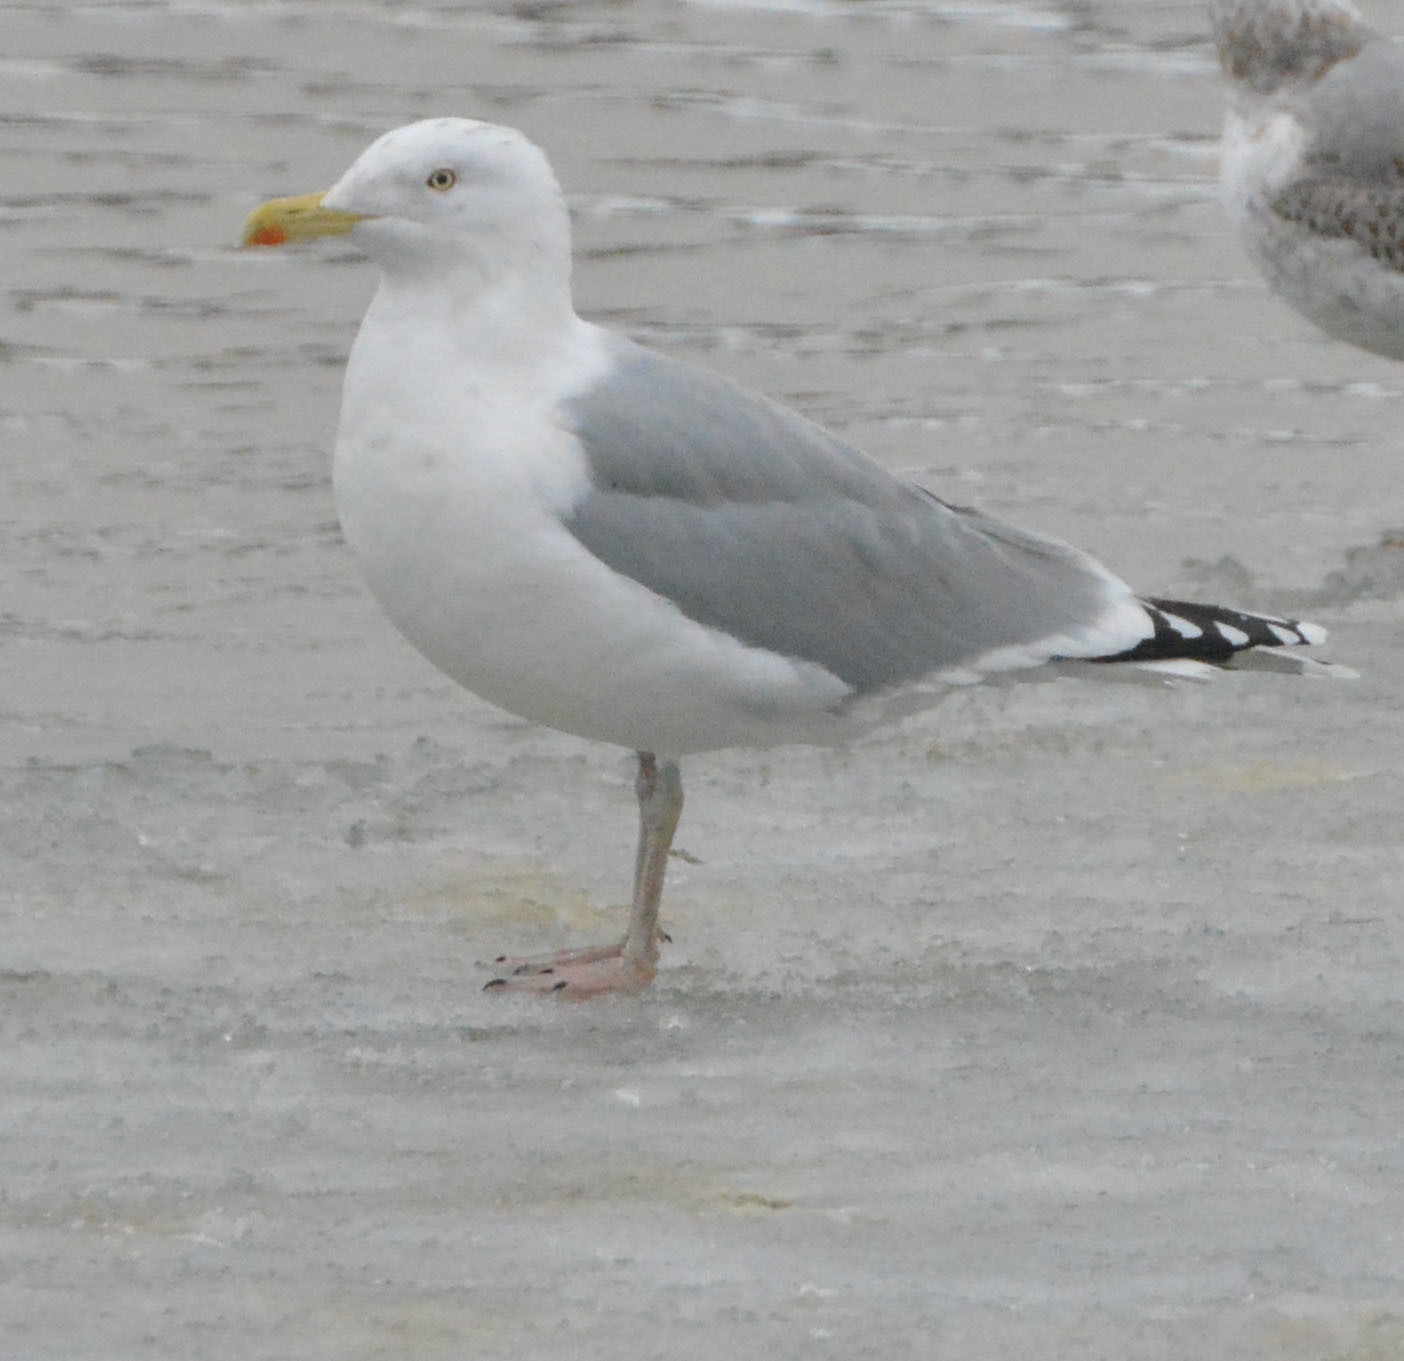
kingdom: Animalia
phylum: Chordata
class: Aves
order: Charadriiformes
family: Laridae
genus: Larus
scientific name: Larus argentatus
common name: Herring gull
